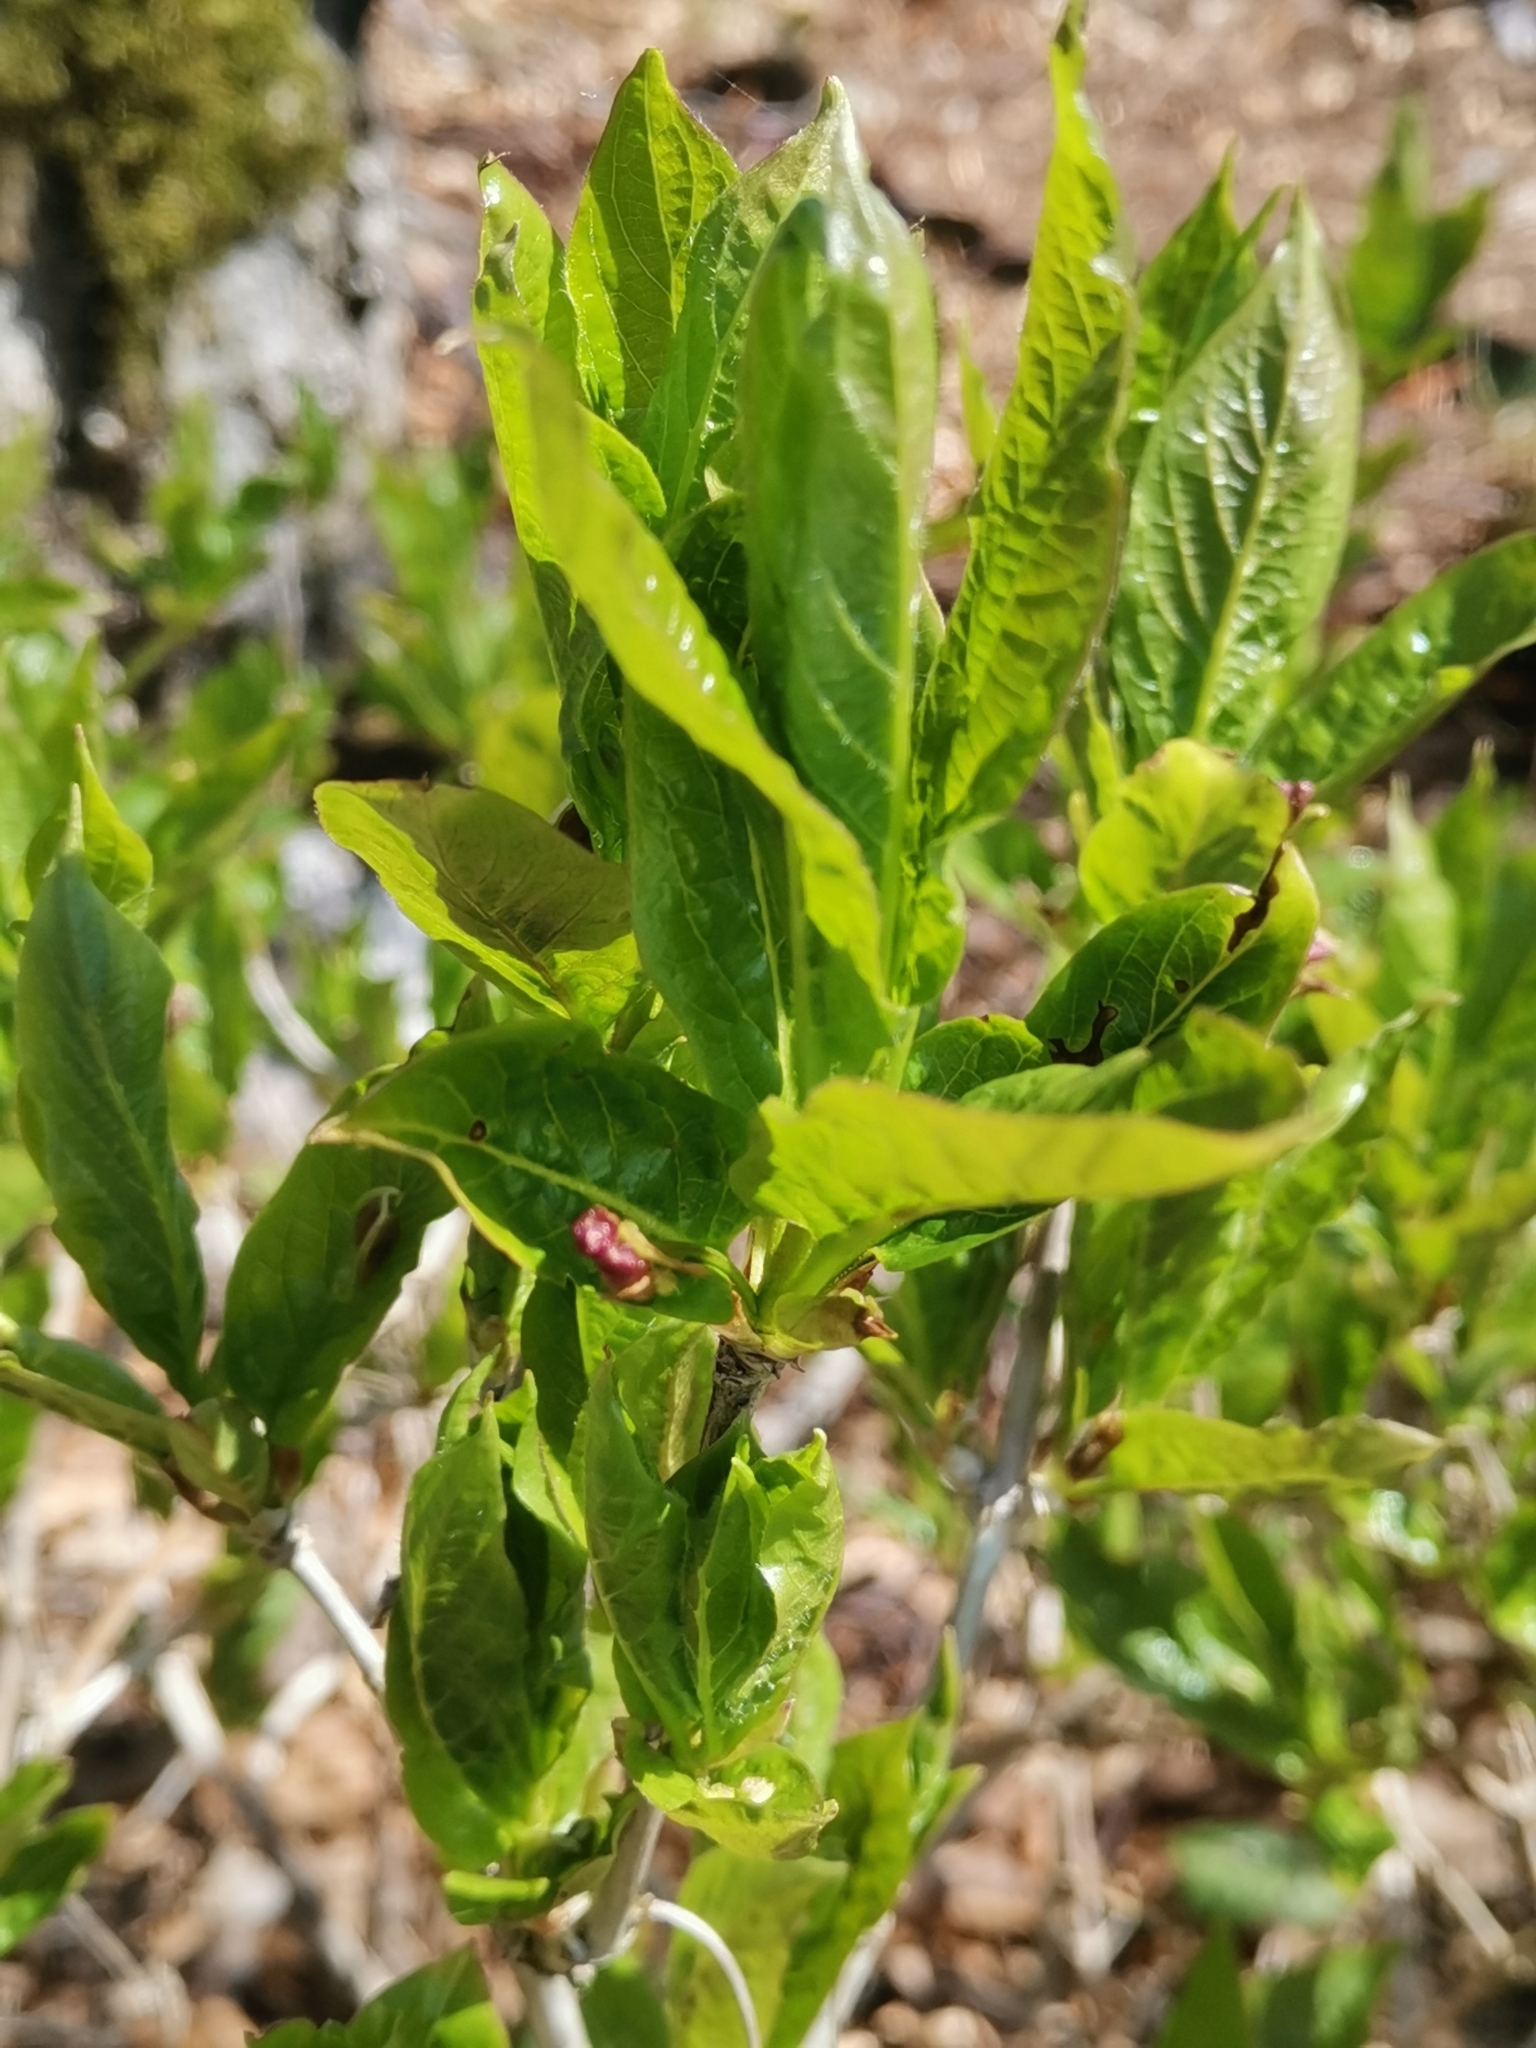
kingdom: Plantae
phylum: Tracheophyta
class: Magnoliopsida
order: Dipsacales
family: Caprifoliaceae
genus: Lonicera
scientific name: Lonicera alpigena
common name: Alpine honeysuckle
